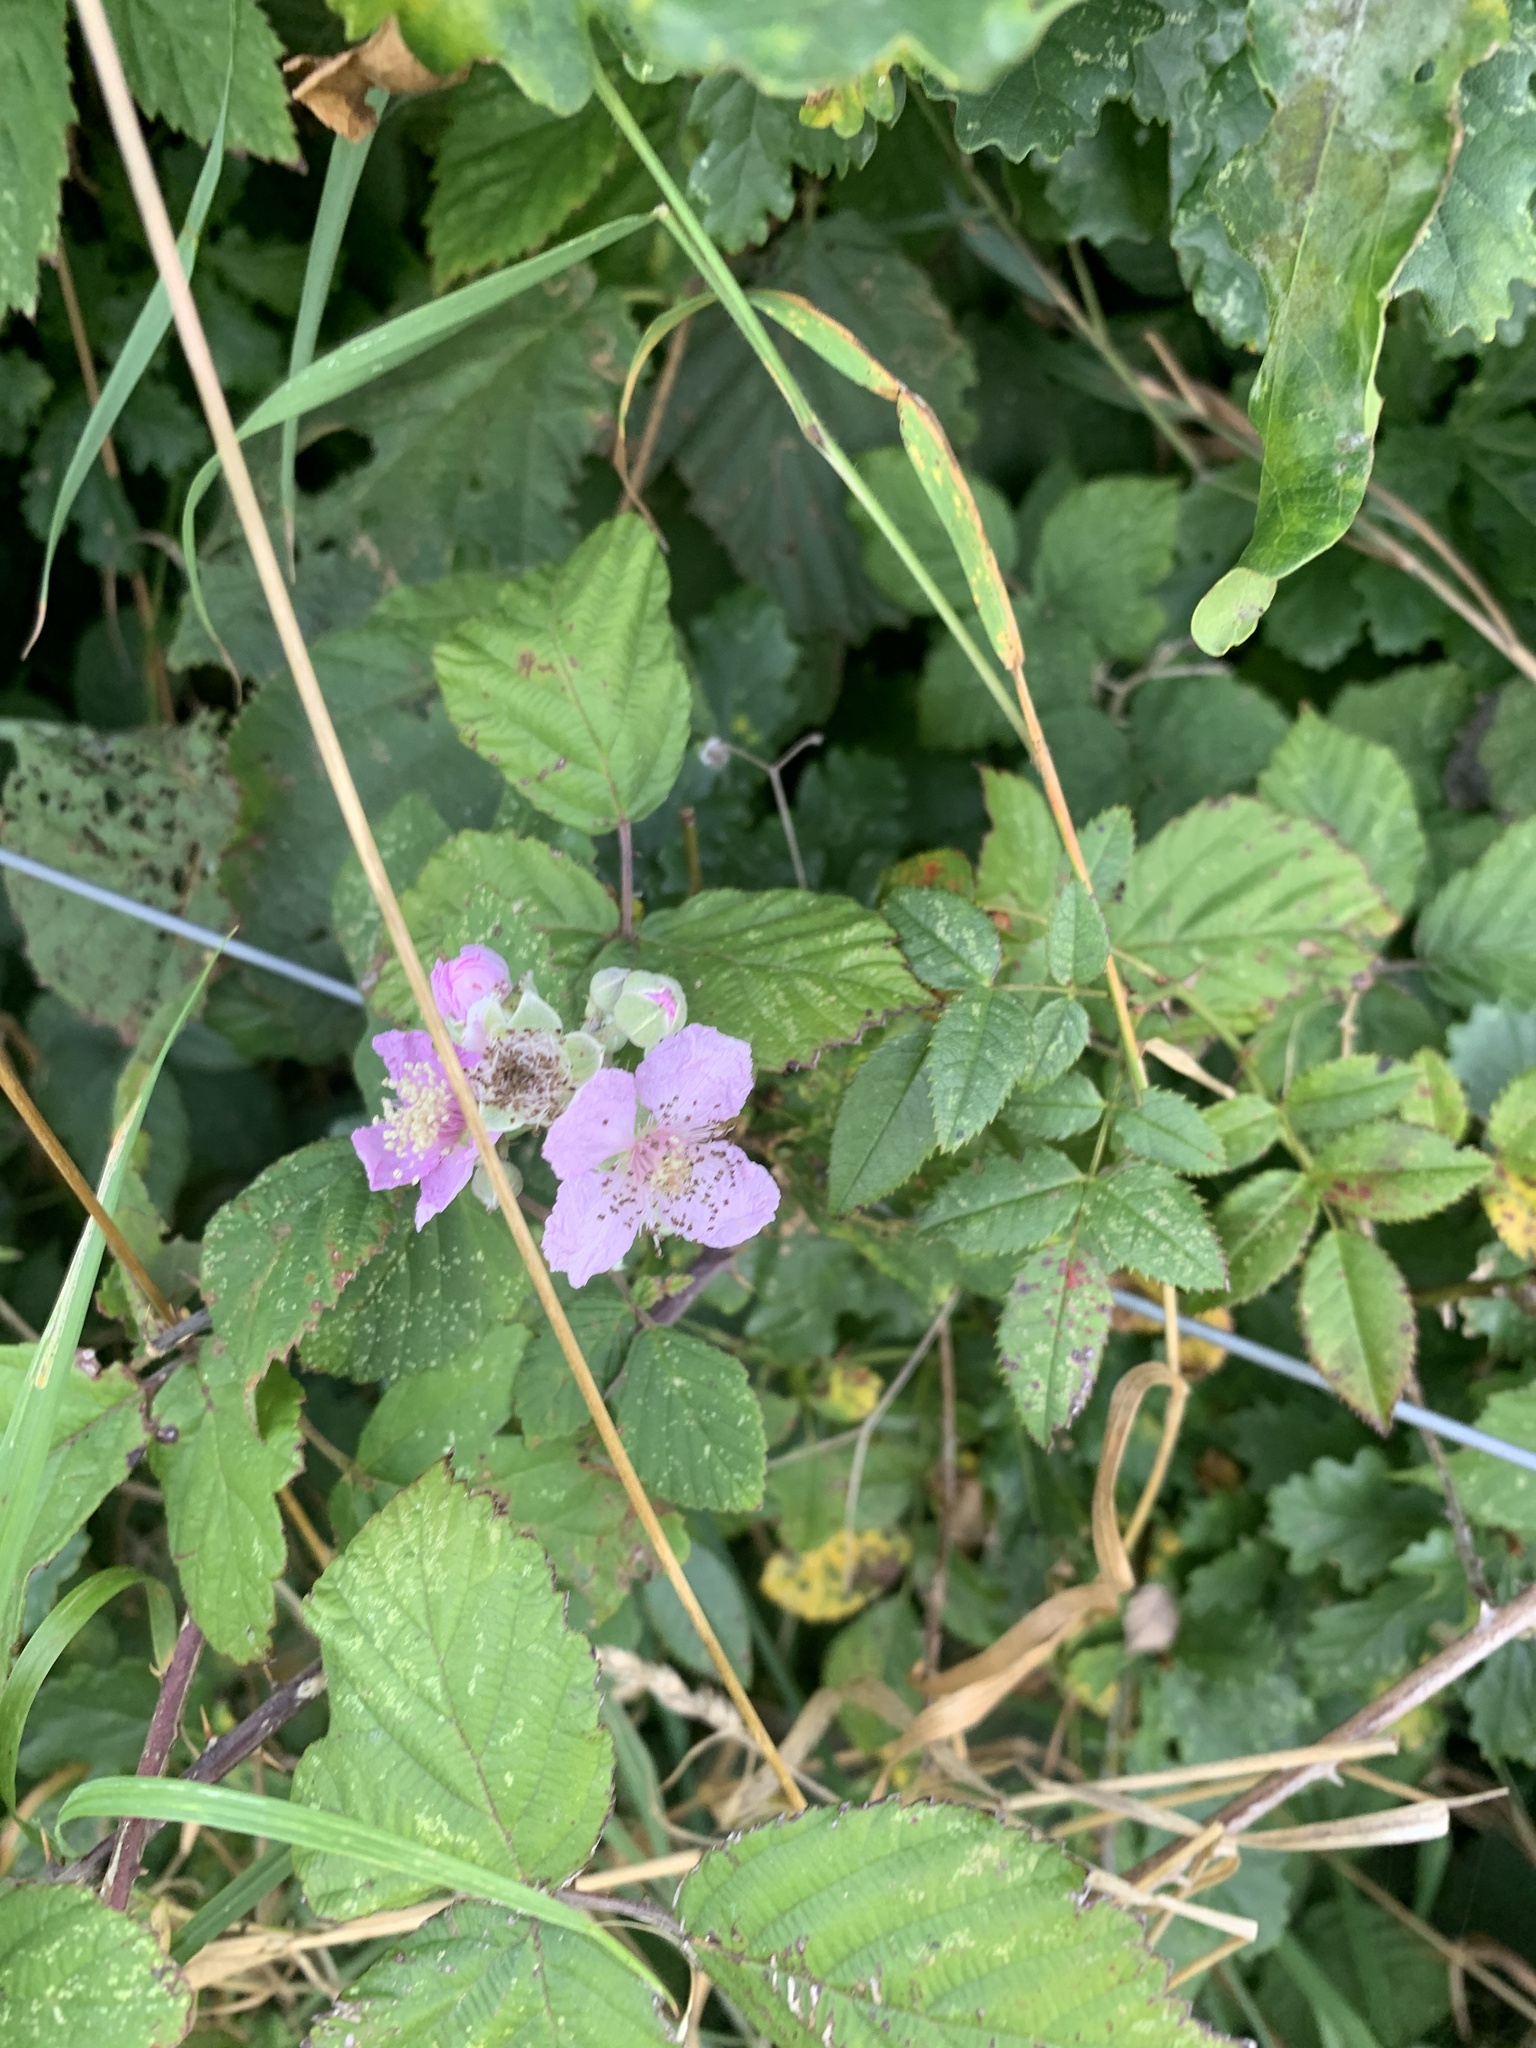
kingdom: Plantae
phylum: Tracheophyta
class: Magnoliopsida
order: Rosales
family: Rosaceae
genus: Rubus
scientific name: Rubus fruticosus
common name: Blackberry, bramble
